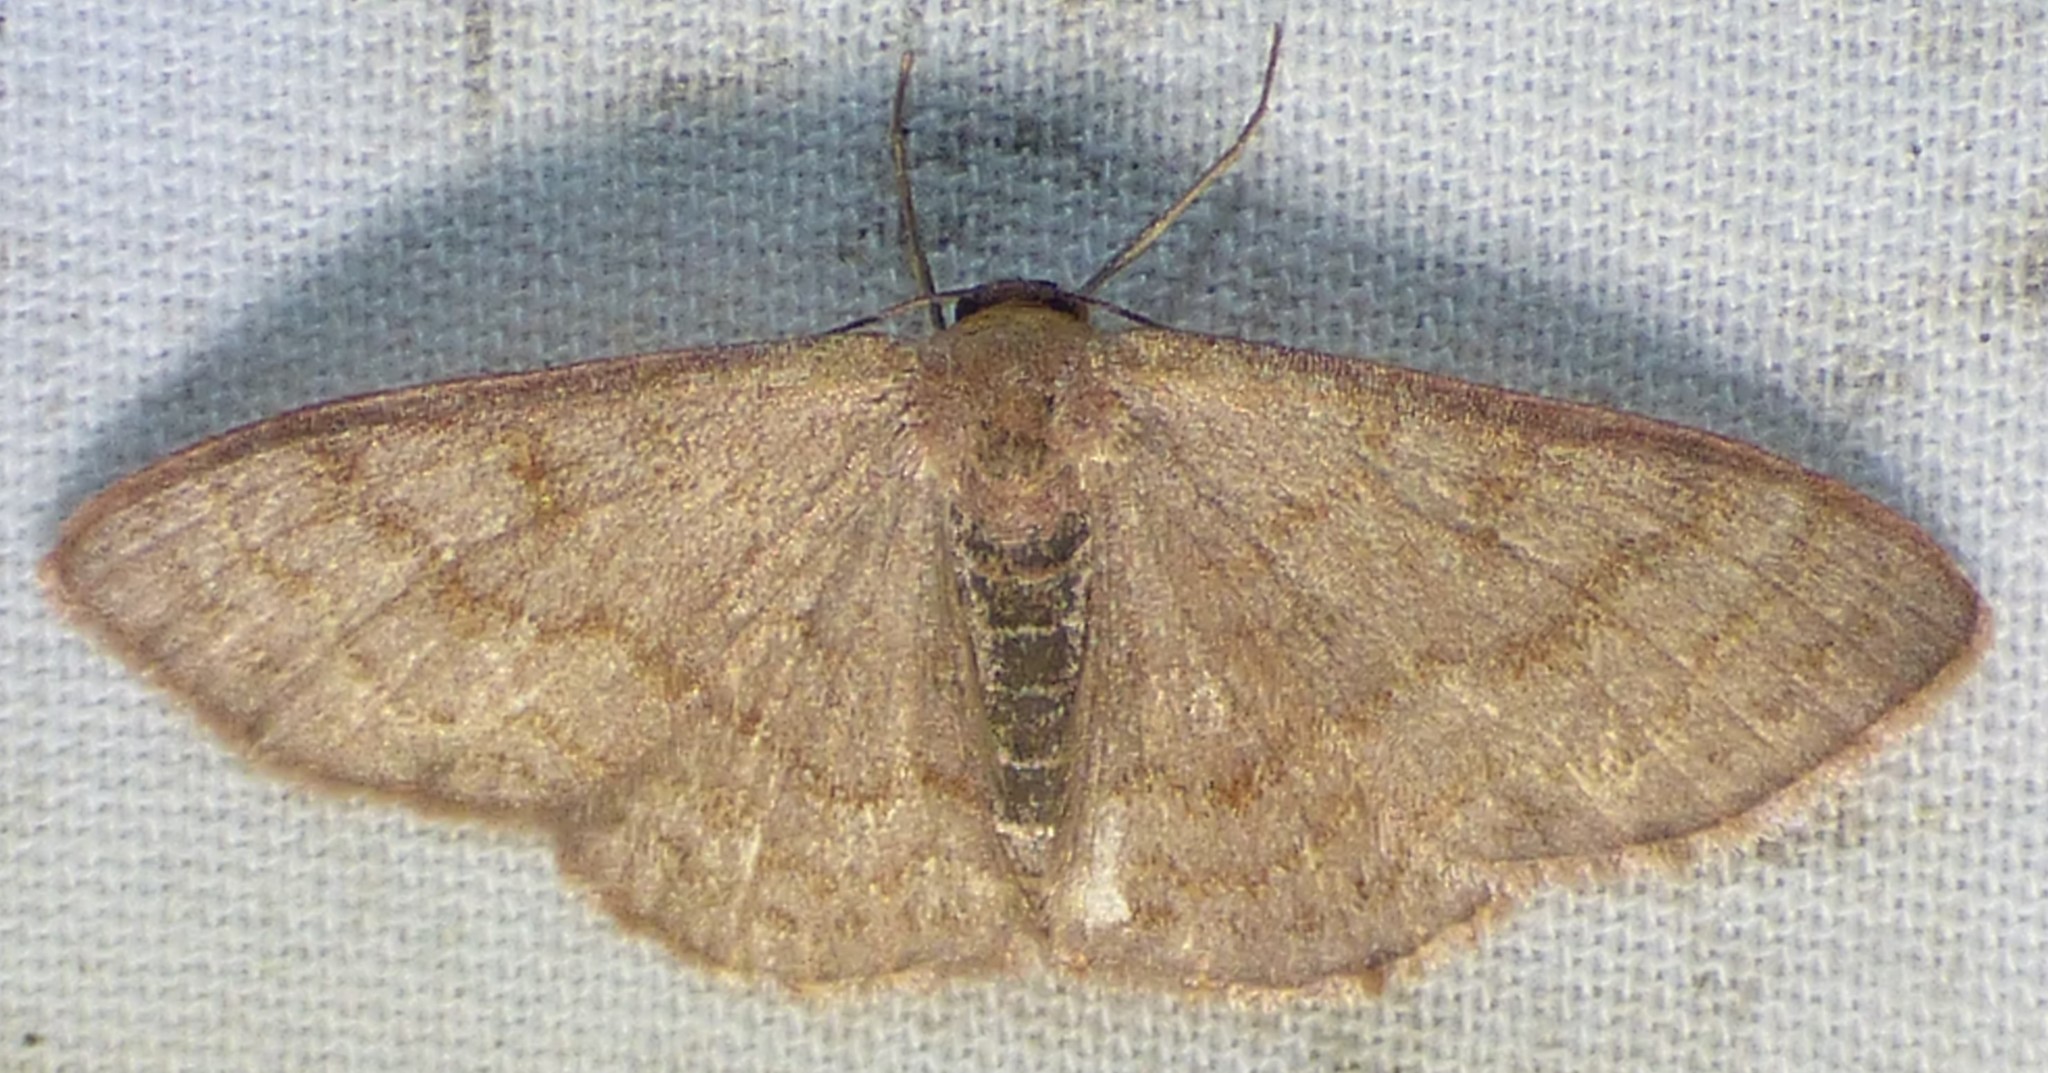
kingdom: Animalia
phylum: Arthropoda
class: Insecta
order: Lepidoptera
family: Geometridae
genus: Leptostales
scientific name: Leptostales pannaria
